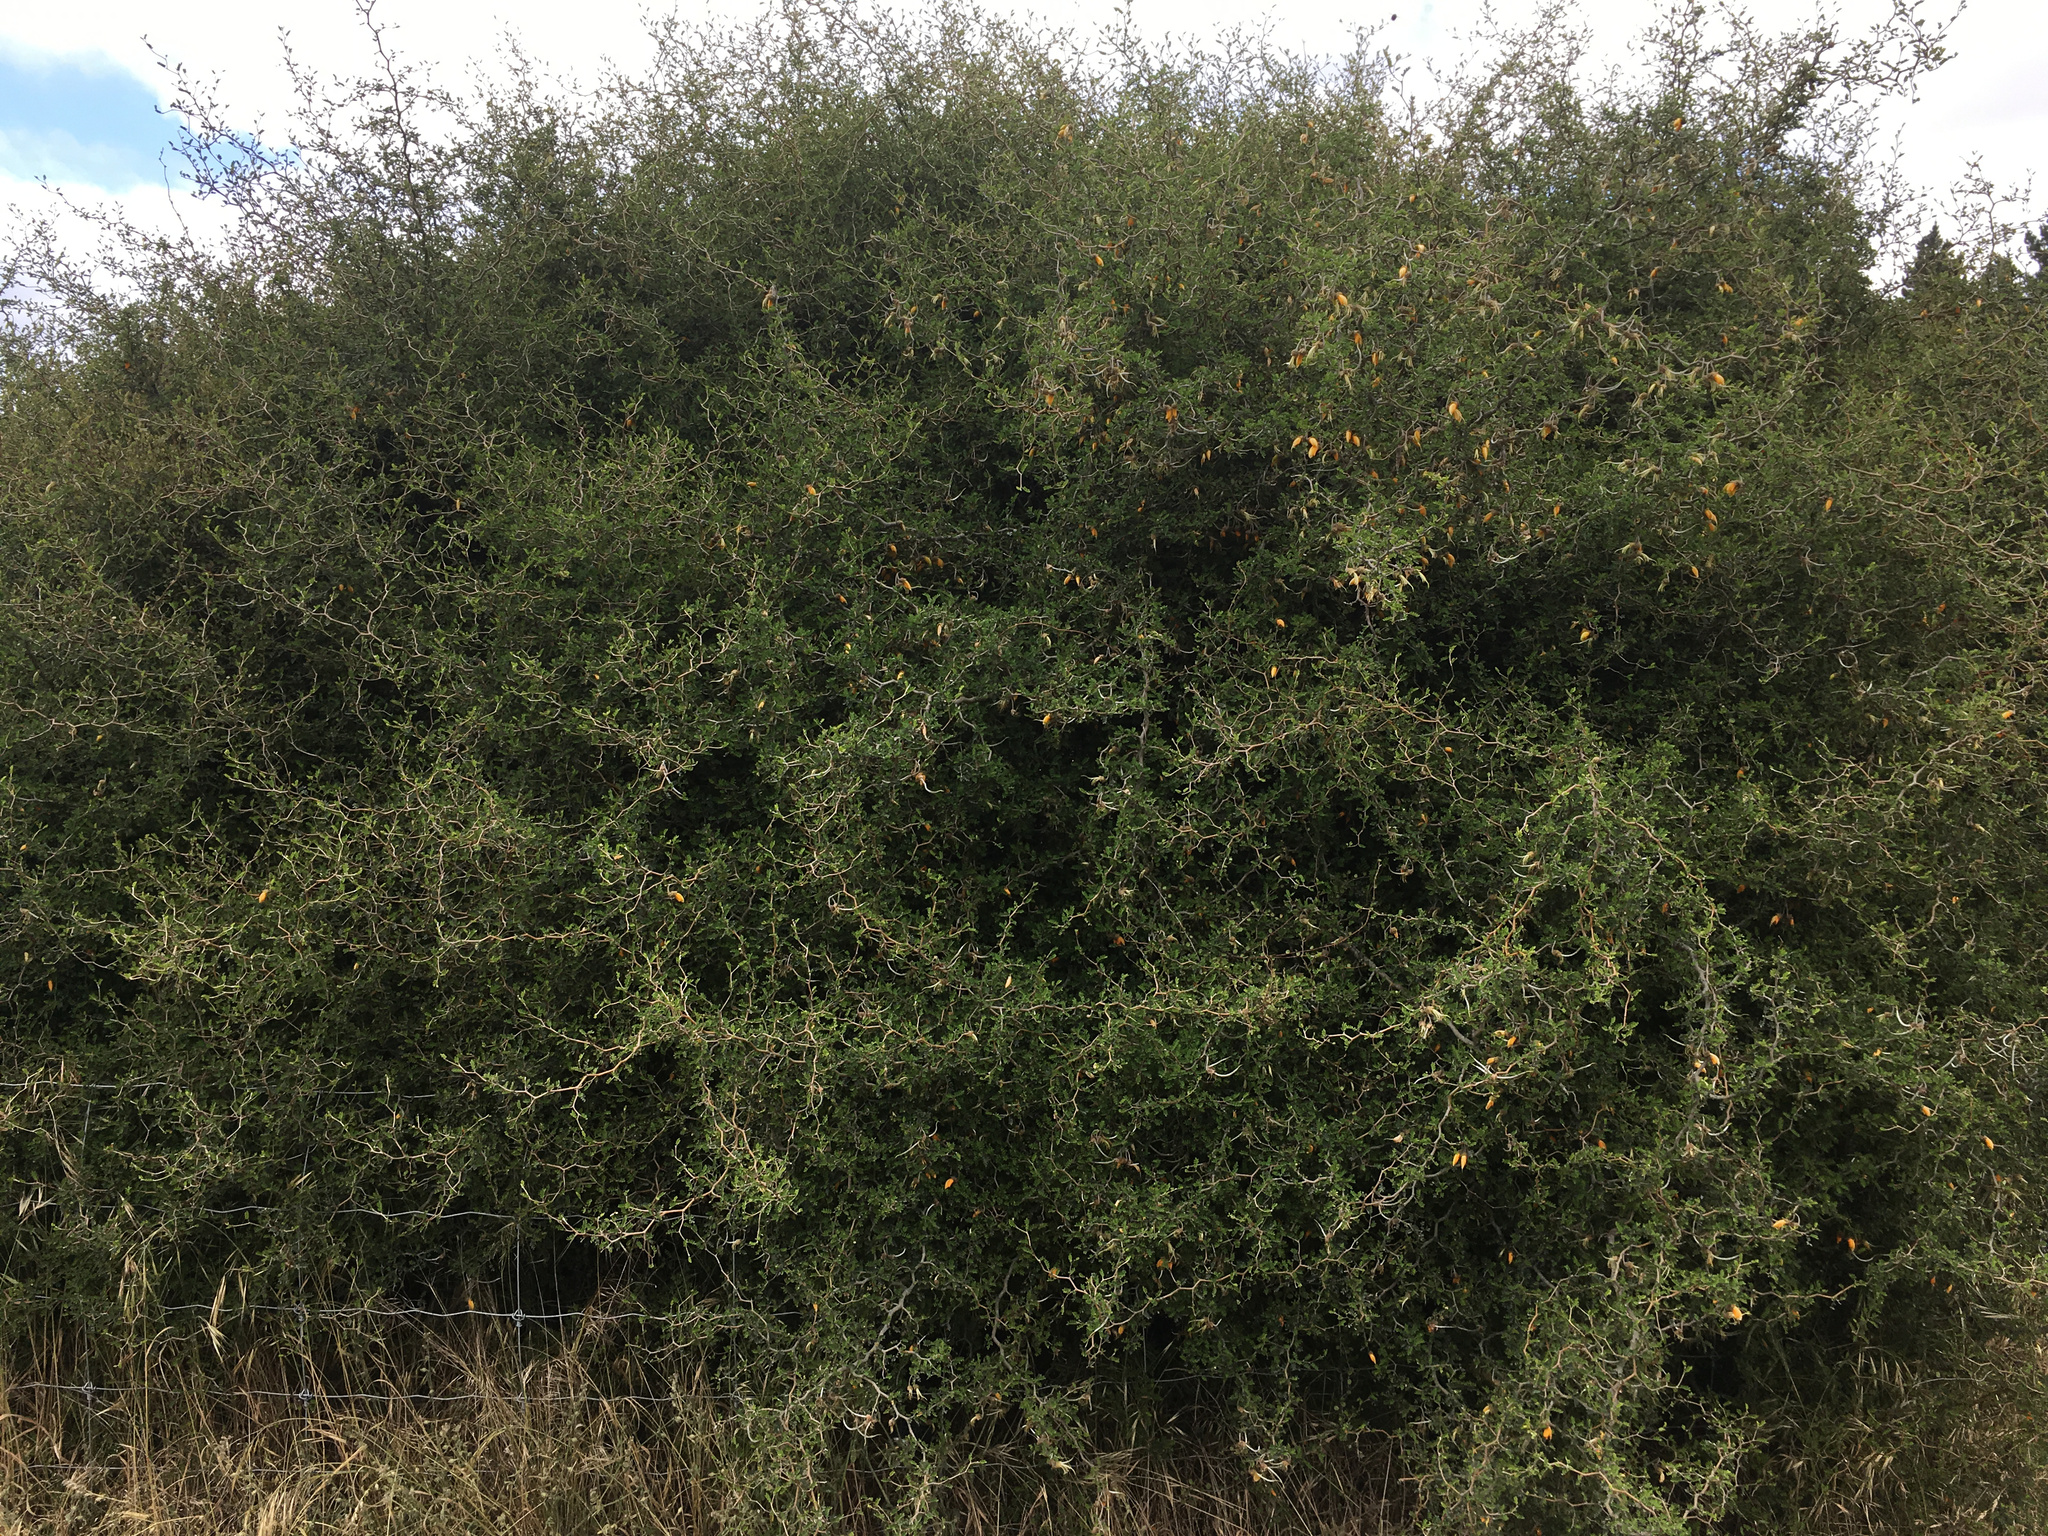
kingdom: Plantae
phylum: Tracheophyta
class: Magnoliopsida
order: Fabales
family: Fabaceae
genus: Sophora
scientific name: Sophora prostrata
